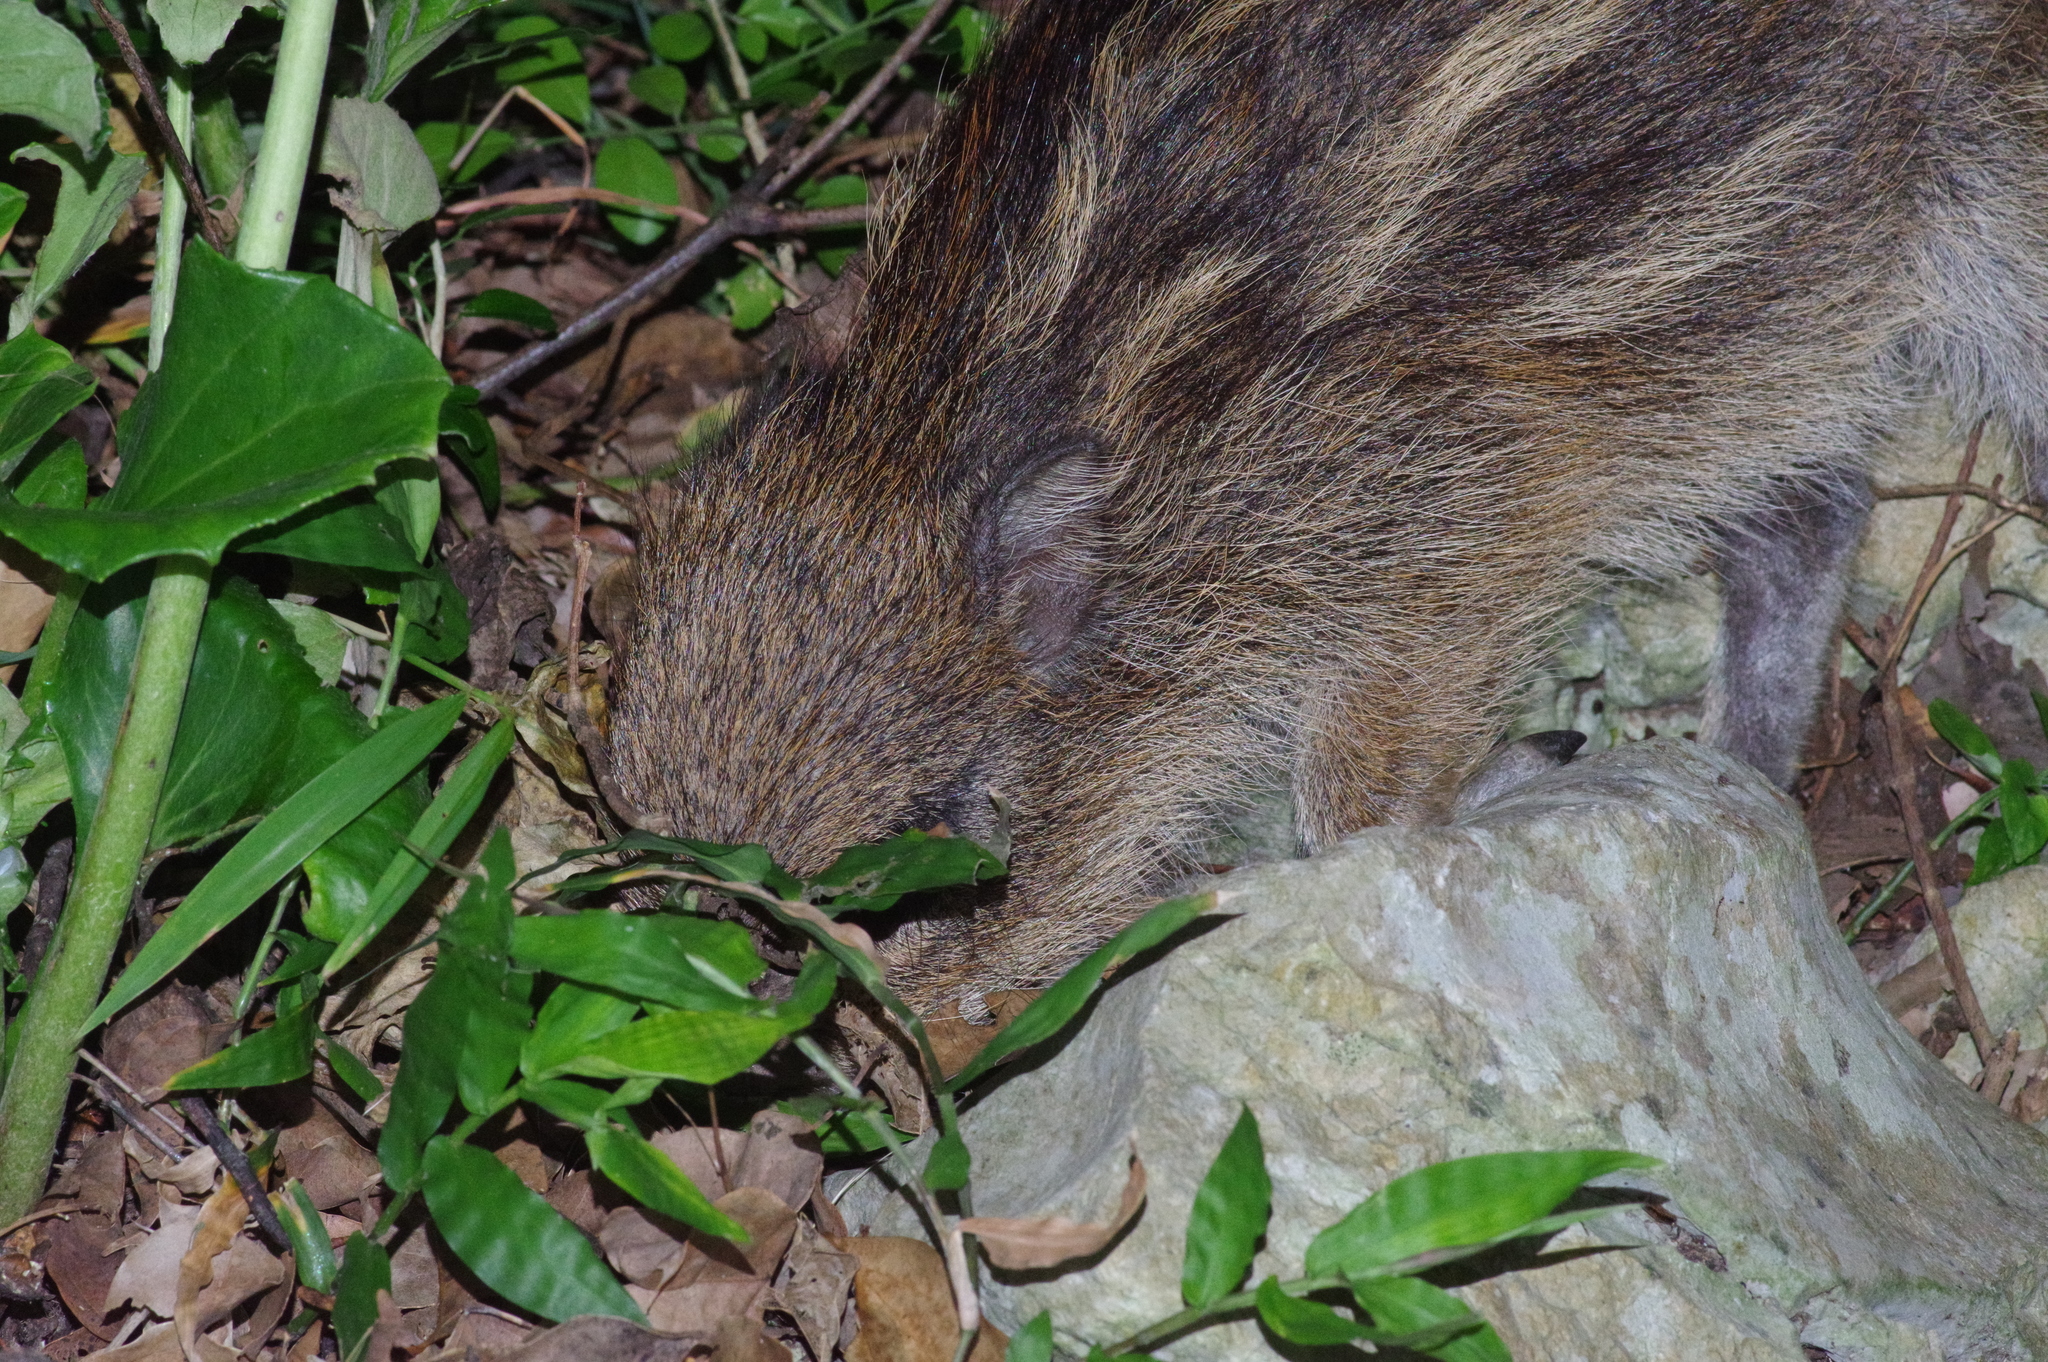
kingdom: Animalia
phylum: Chordata
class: Mammalia
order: Artiodactyla
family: Suidae
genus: Sus
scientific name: Sus scrofa
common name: Wild boar
